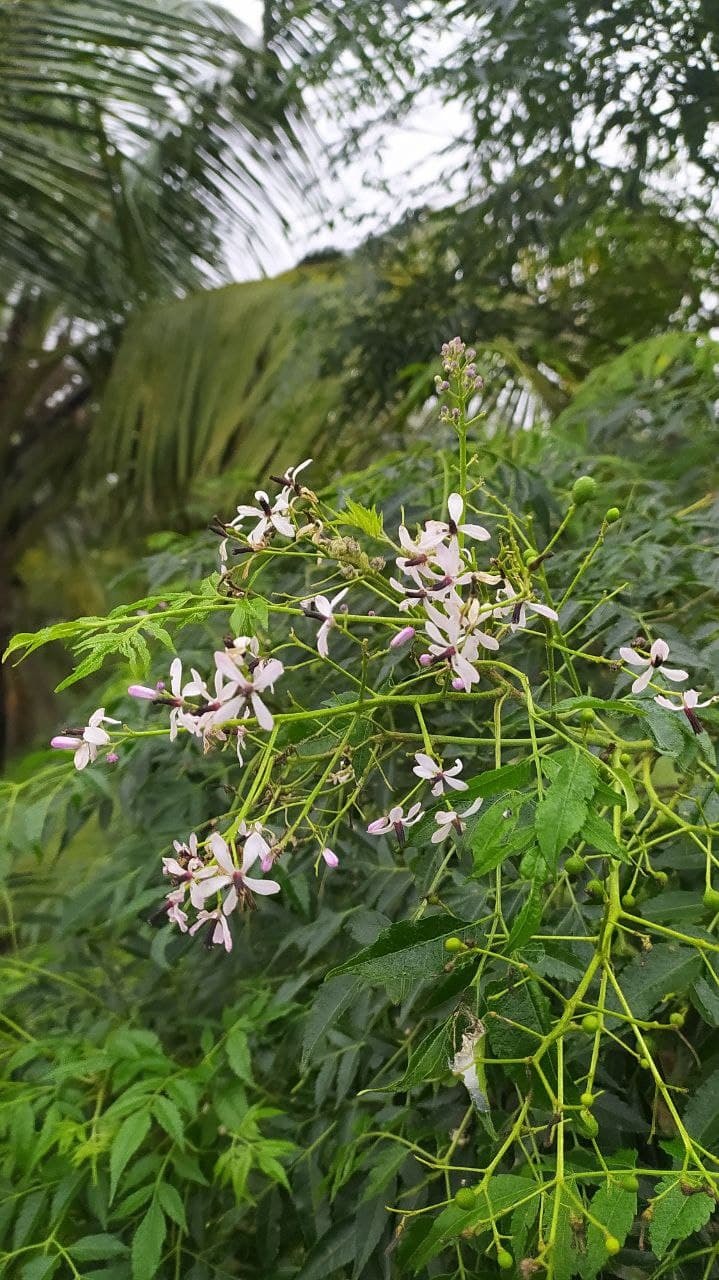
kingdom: Plantae
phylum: Tracheophyta
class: Magnoliopsida
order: Sapindales
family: Meliaceae
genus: Melia
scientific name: Melia azedarach
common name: Chinaberrytree
